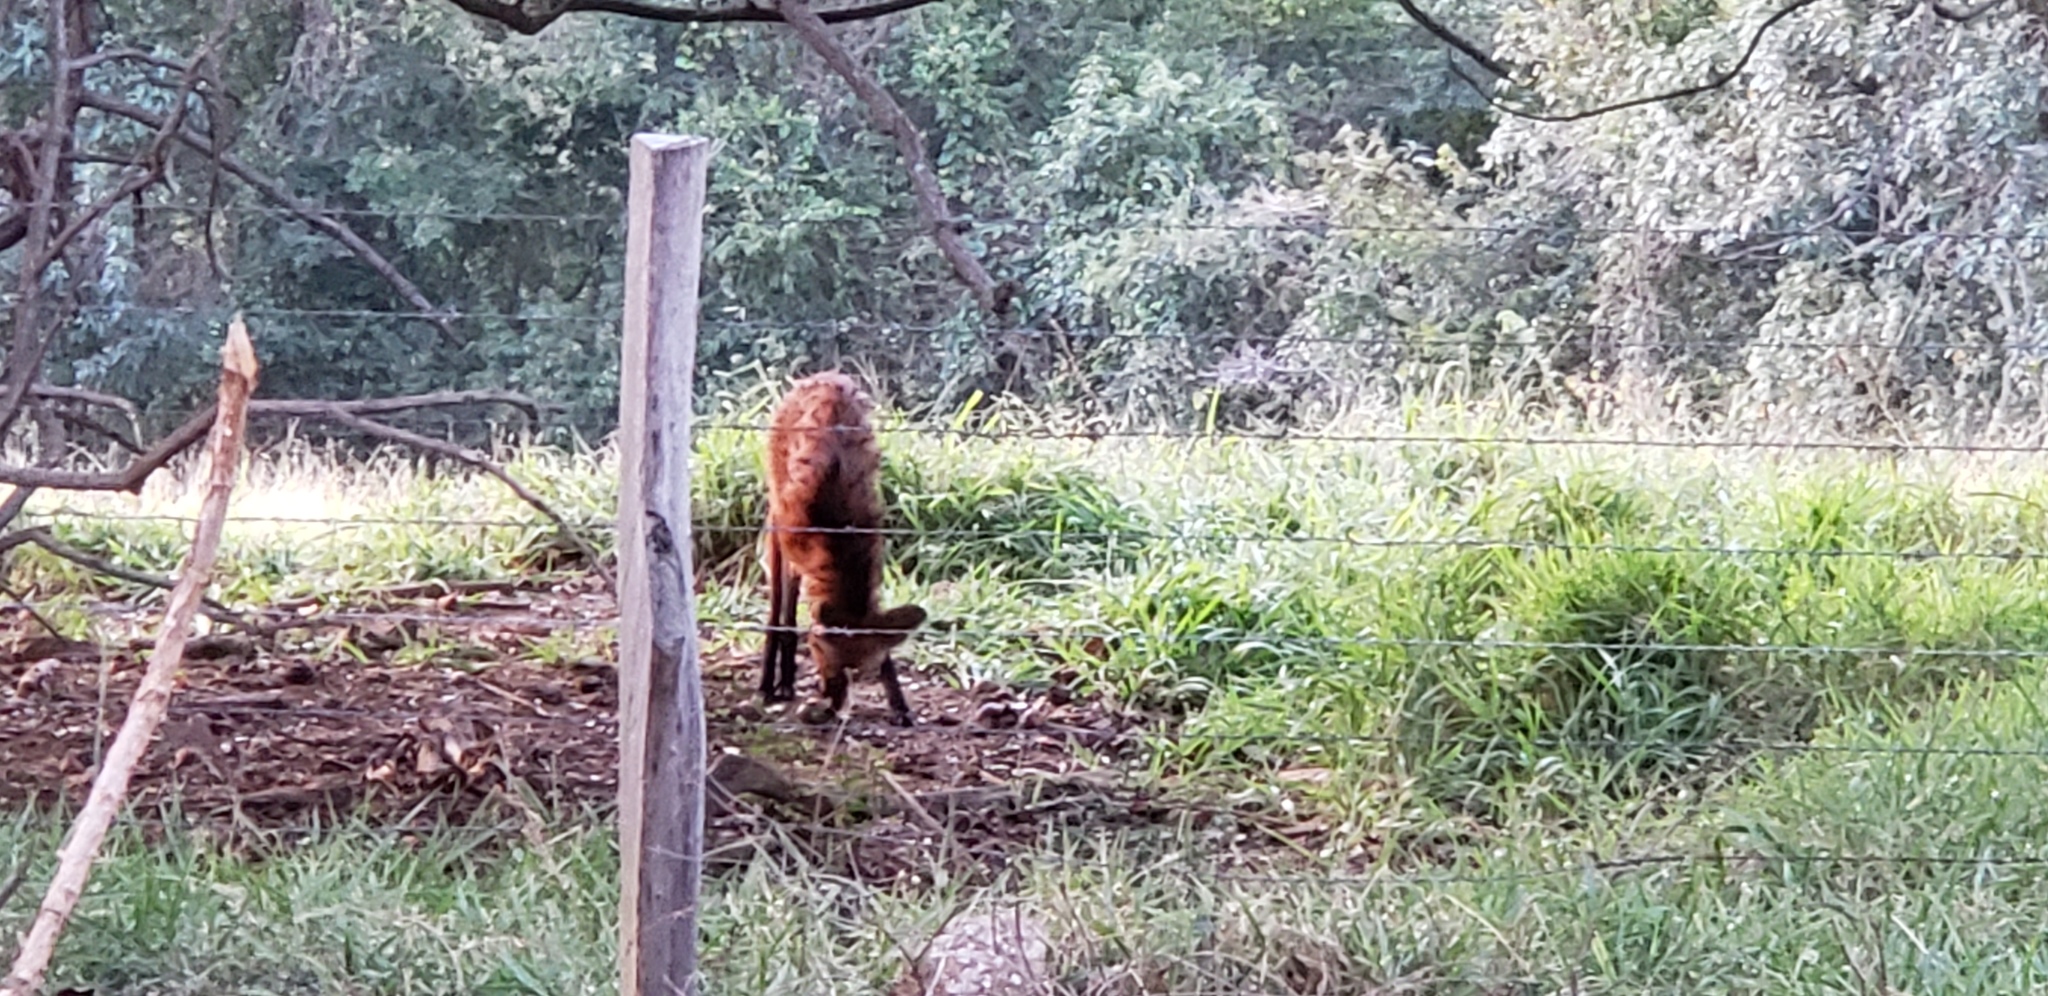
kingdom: Animalia
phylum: Chordata
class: Mammalia
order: Carnivora
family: Canidae
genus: Chrysocyon
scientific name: Chrysocyon brachyurus
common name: Maned wolf
